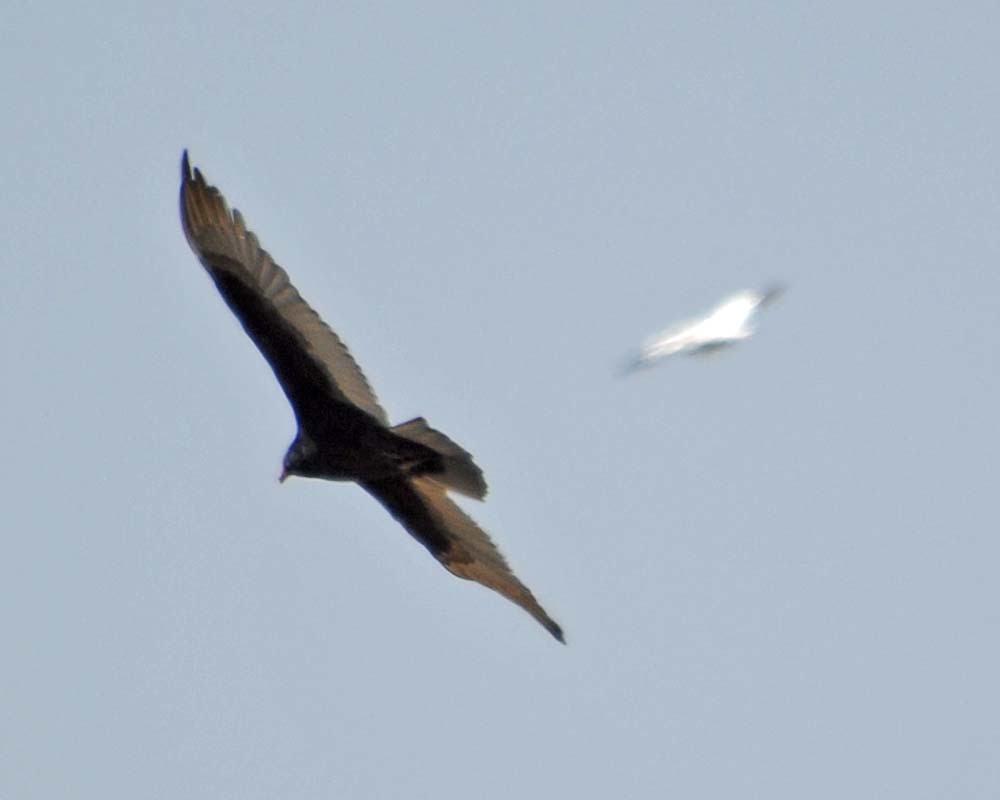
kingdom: Animalia
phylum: Chordata
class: Aves
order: Accipitriformes
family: Cathartidae
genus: Cathartes
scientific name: Cathartes aura
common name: Turkey vulture
